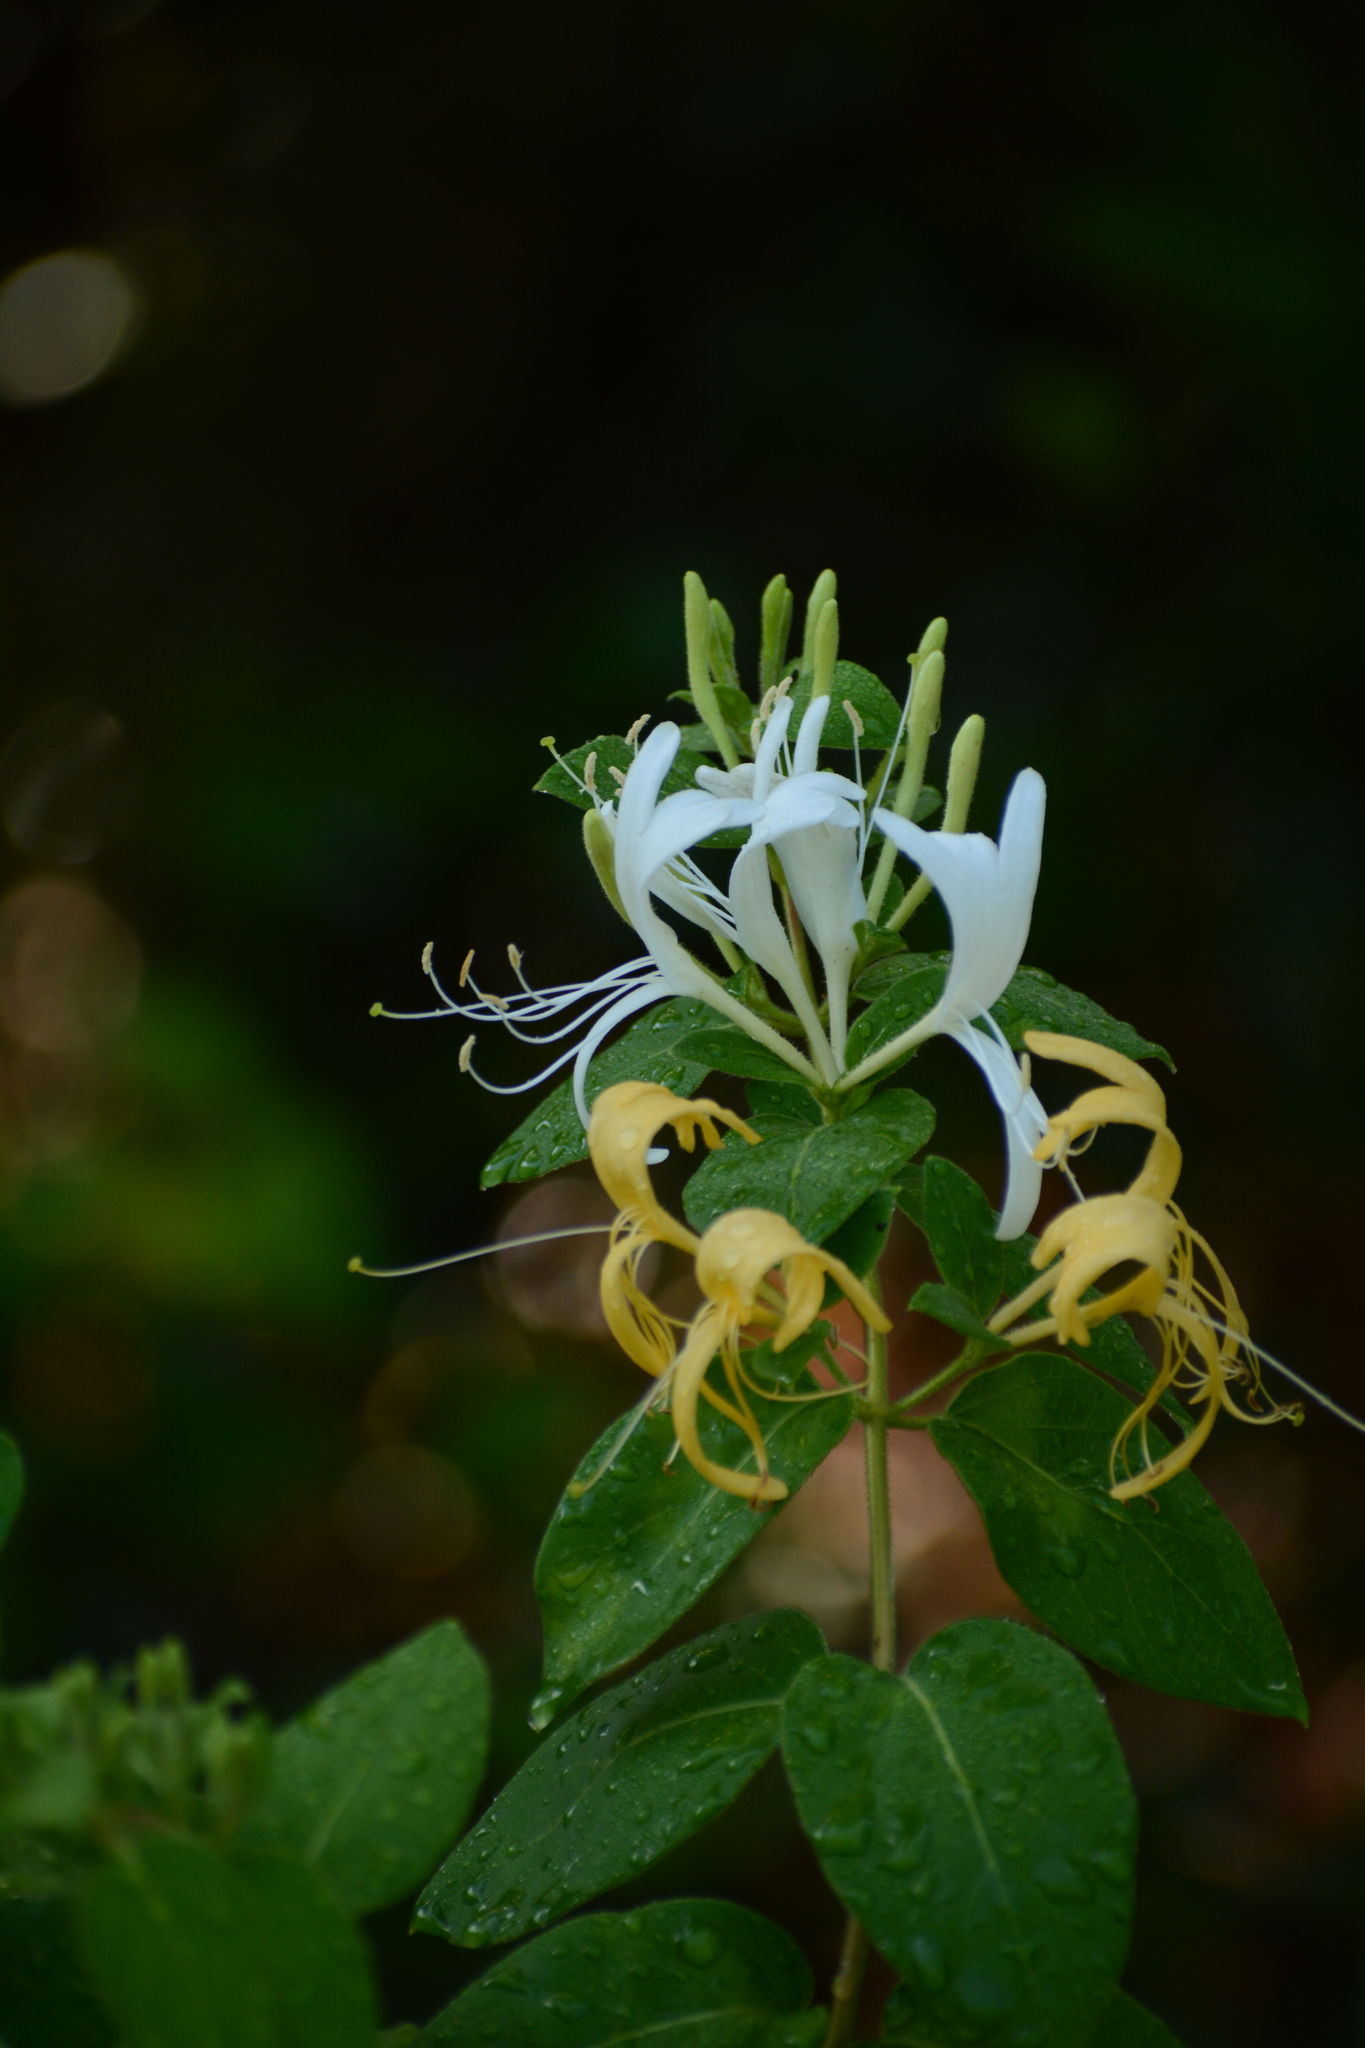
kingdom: Plantae
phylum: Tracheophyta
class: Magnoliopsida
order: Dipsacales
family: Caprifoliaceae
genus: Lonicera
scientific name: Lonicera japonica
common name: Japanese honeysuckle
